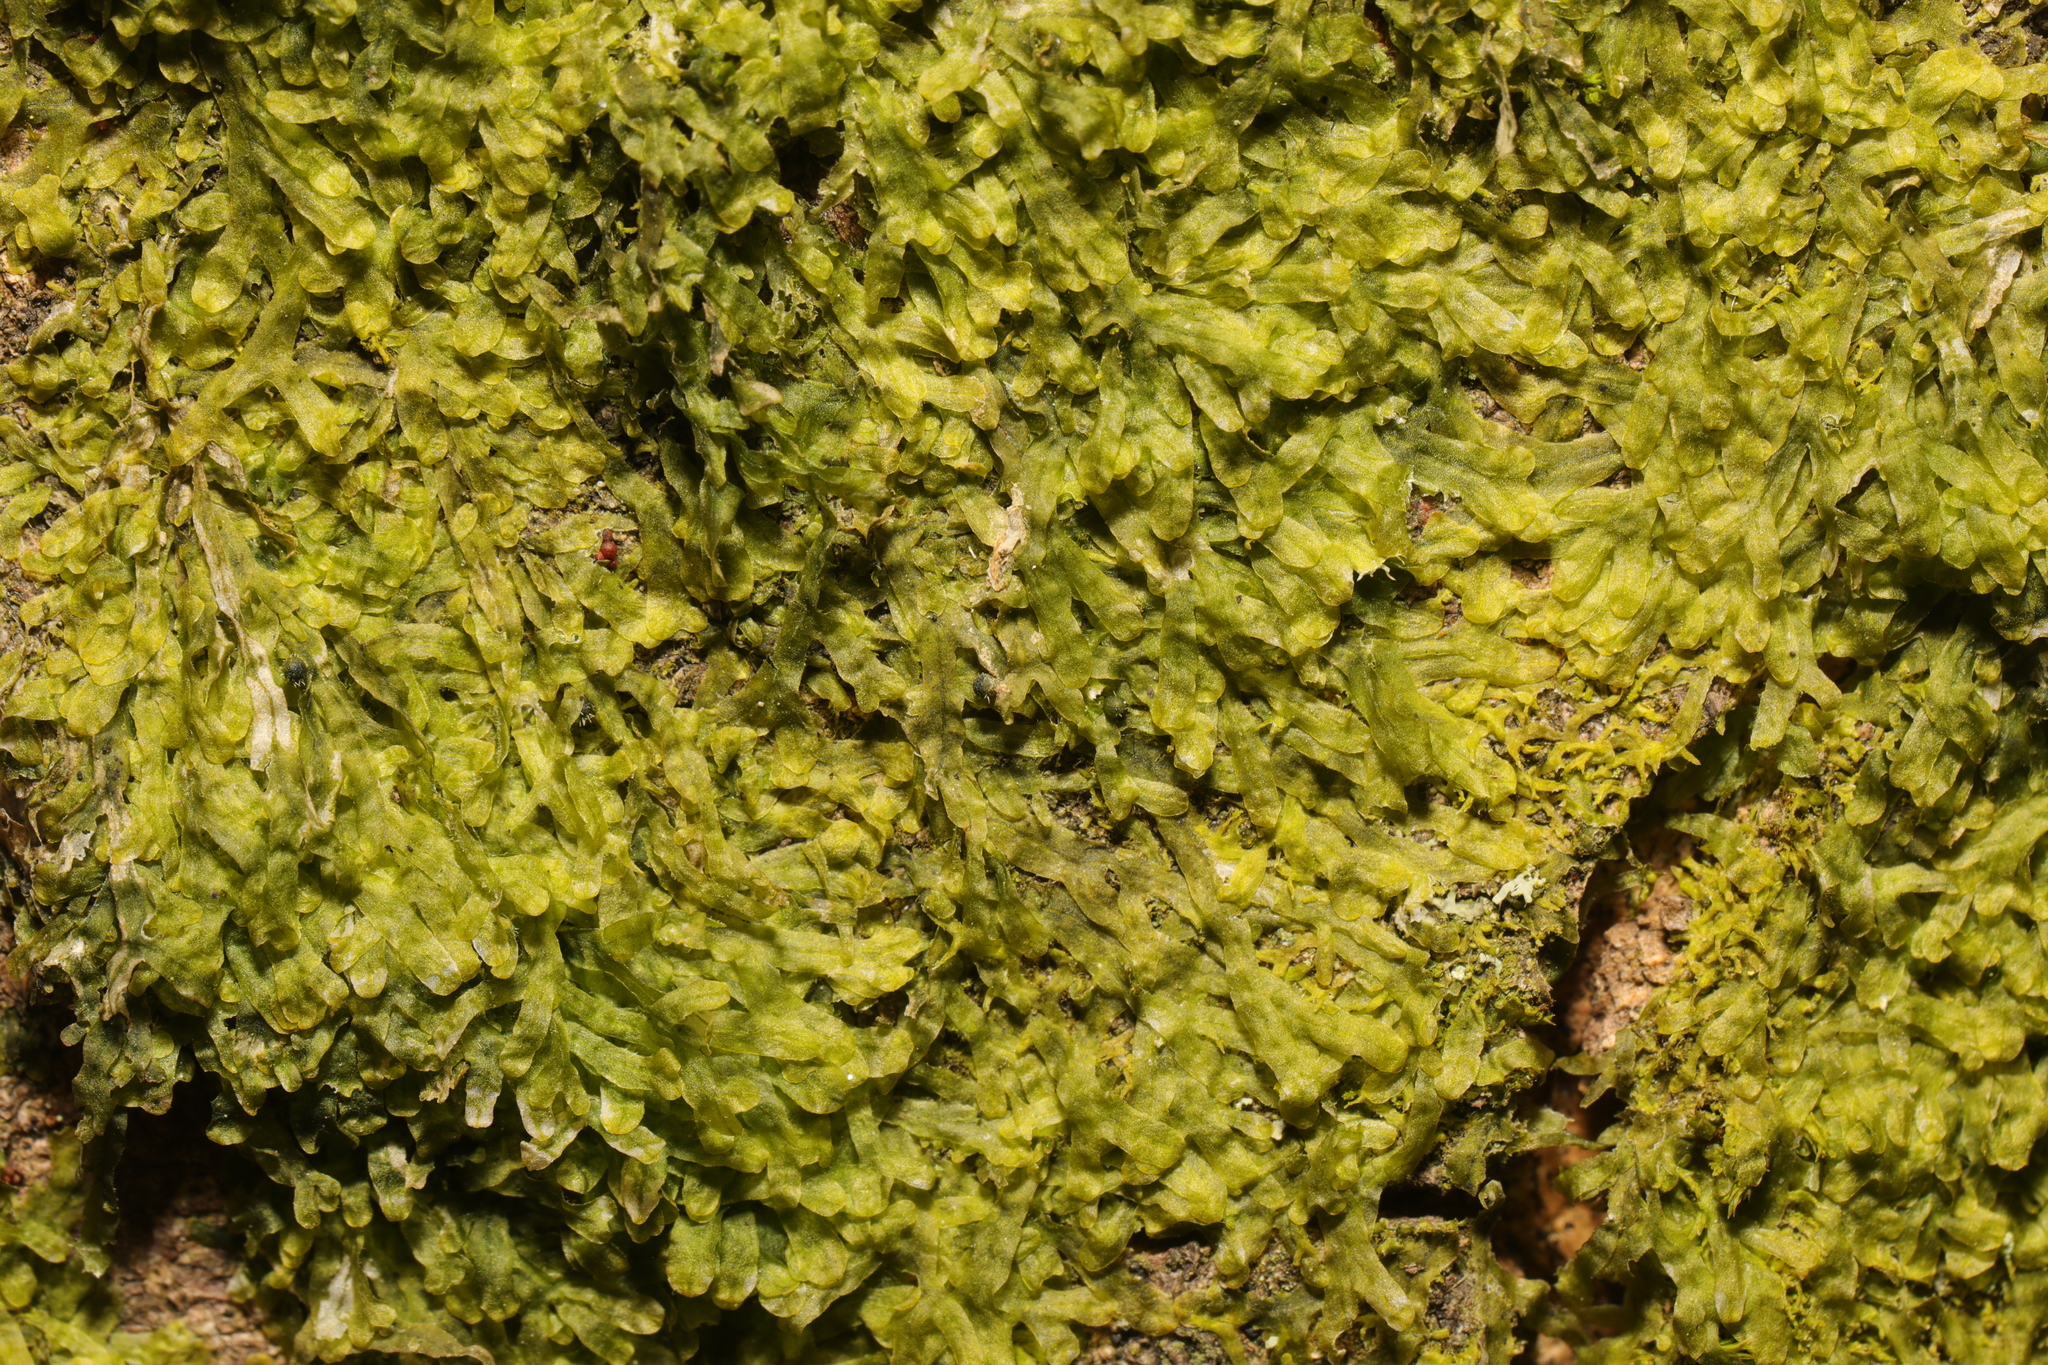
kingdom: Plantae
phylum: Marchantiophyta
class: Jungermanniopsida
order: Metzgeriales
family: Metzgeriaceae
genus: Metzgeria
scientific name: Metzgeria furcata
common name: Forked veilwort
